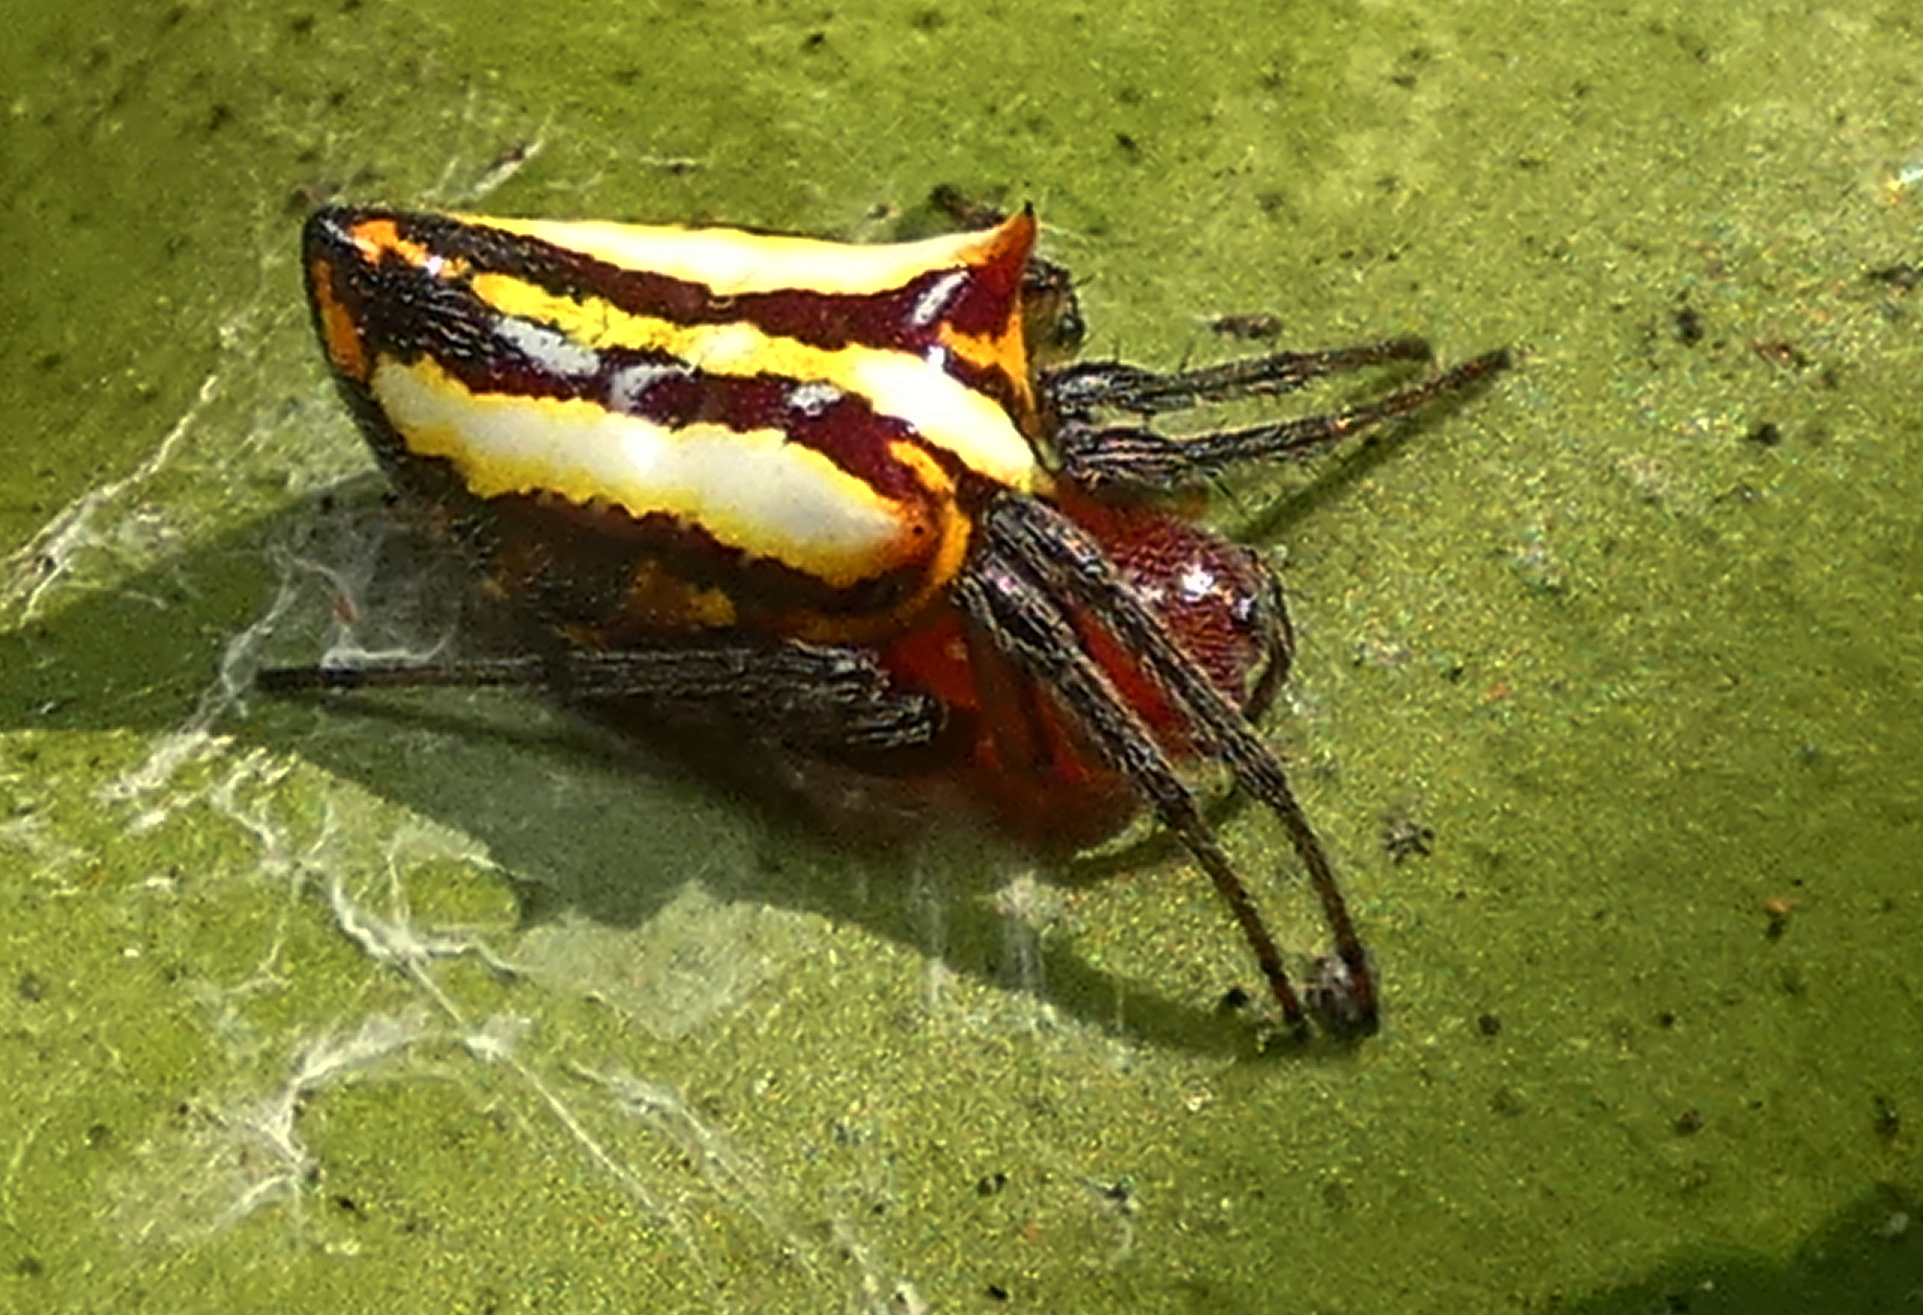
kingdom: Animalia
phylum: Arthropoda
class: Arachnida
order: Araneae
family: Araneidae
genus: Alpaida
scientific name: Alpaida bicornuta
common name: Orb weavers
